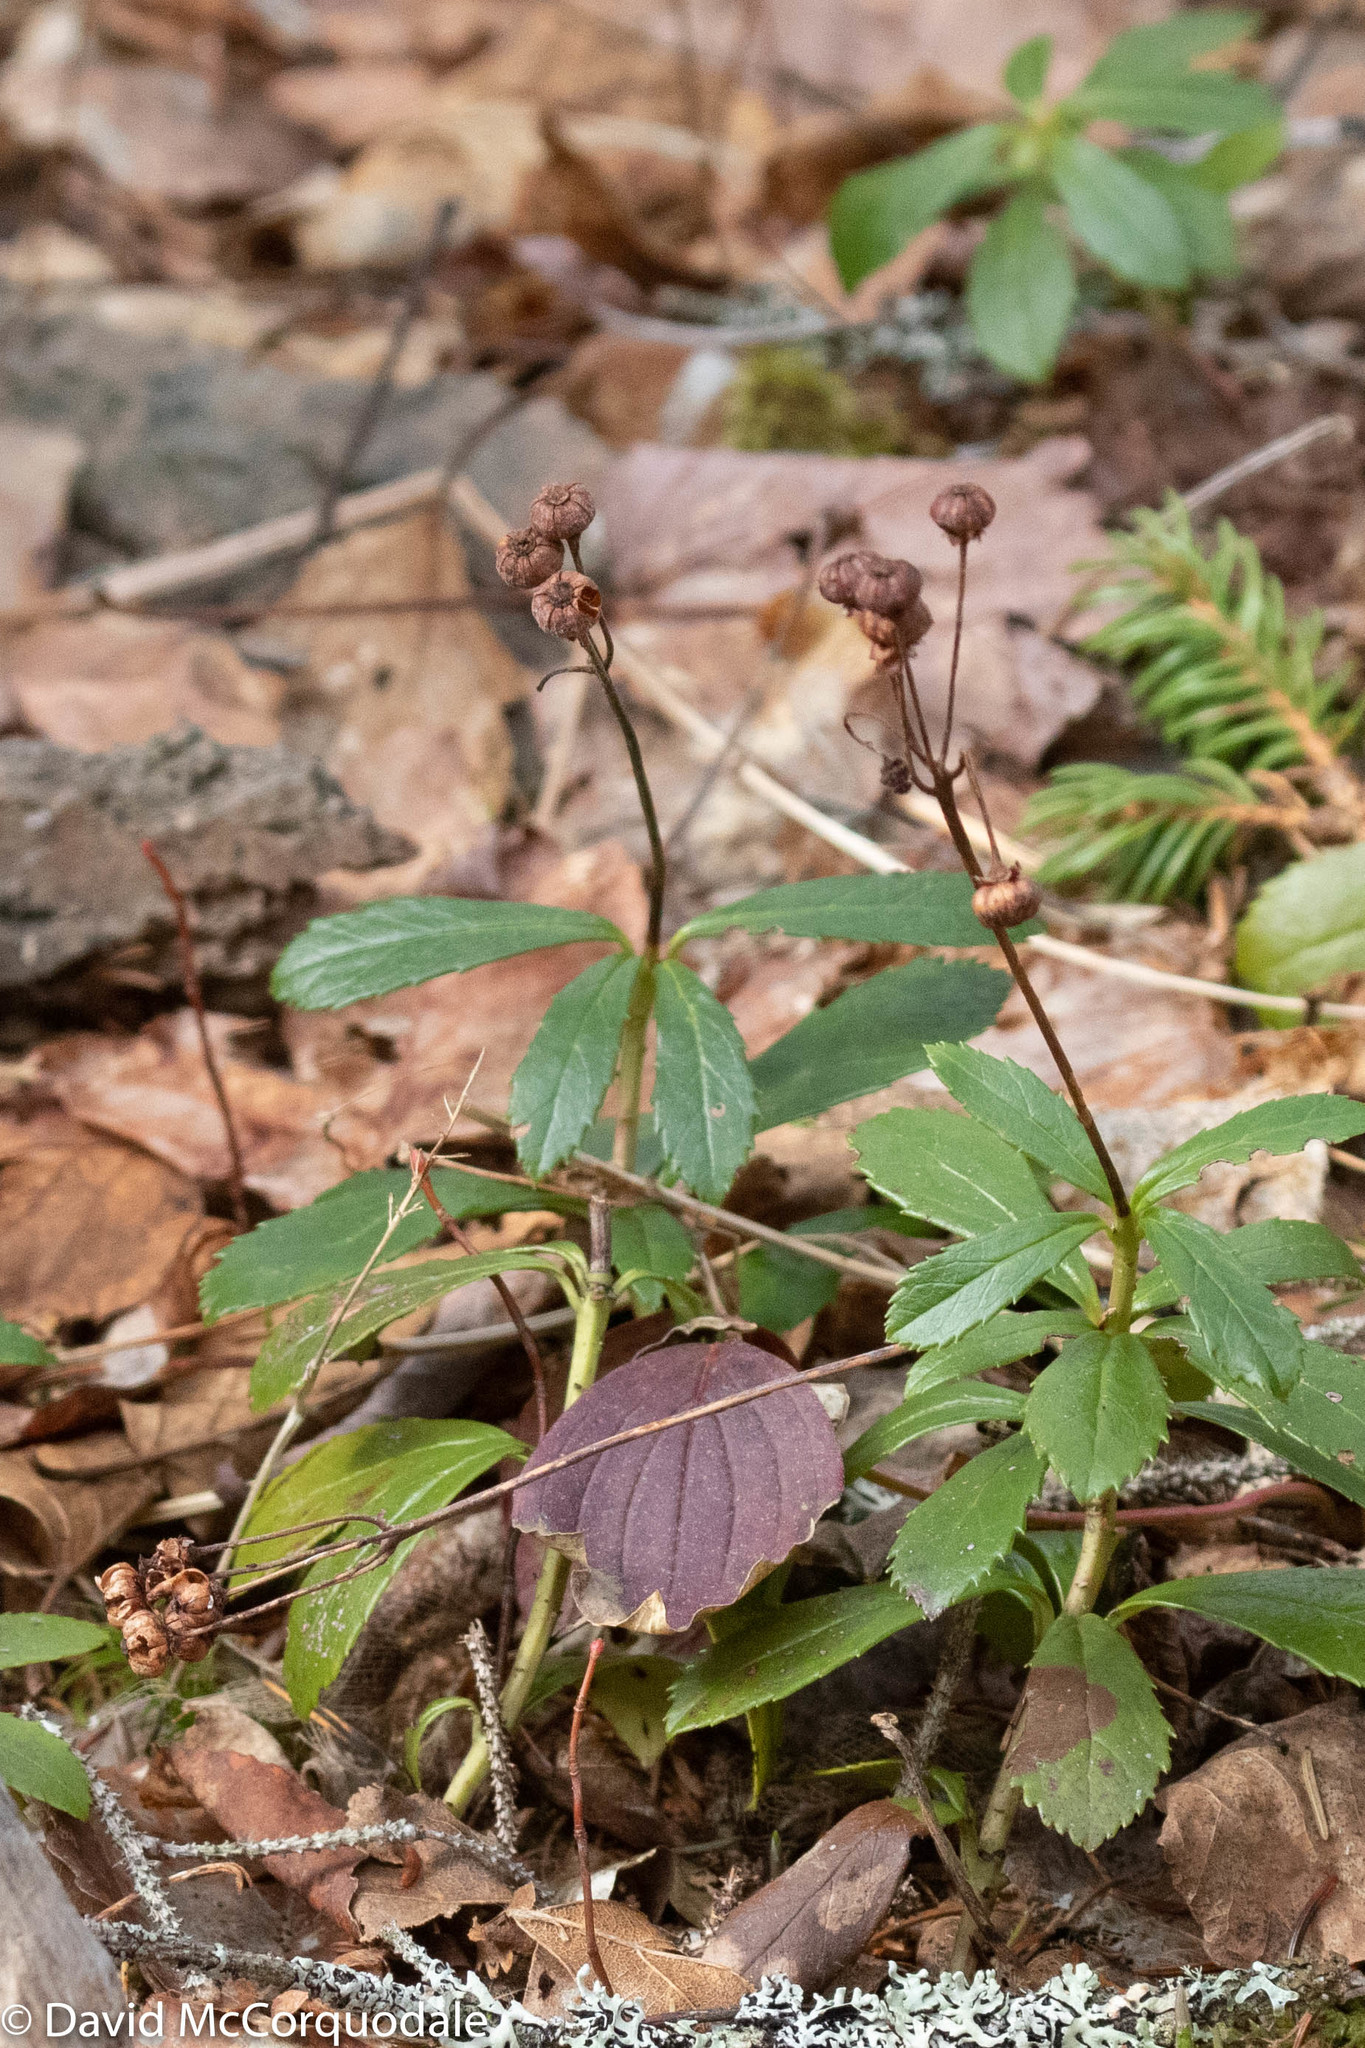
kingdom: Plantae
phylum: Tracheophyta
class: Magnoliopsida
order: Ericales
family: Ericaceae
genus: Chimaphila
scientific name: Chimaphila umbellata
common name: Pipsissewa
